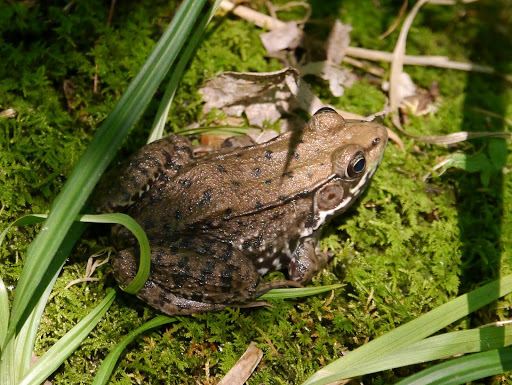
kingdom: Animalia
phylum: Chordata
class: Amphibia
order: Anura
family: Ranidae
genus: Lithobates
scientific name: Lithobates clamitans
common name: Green frog
